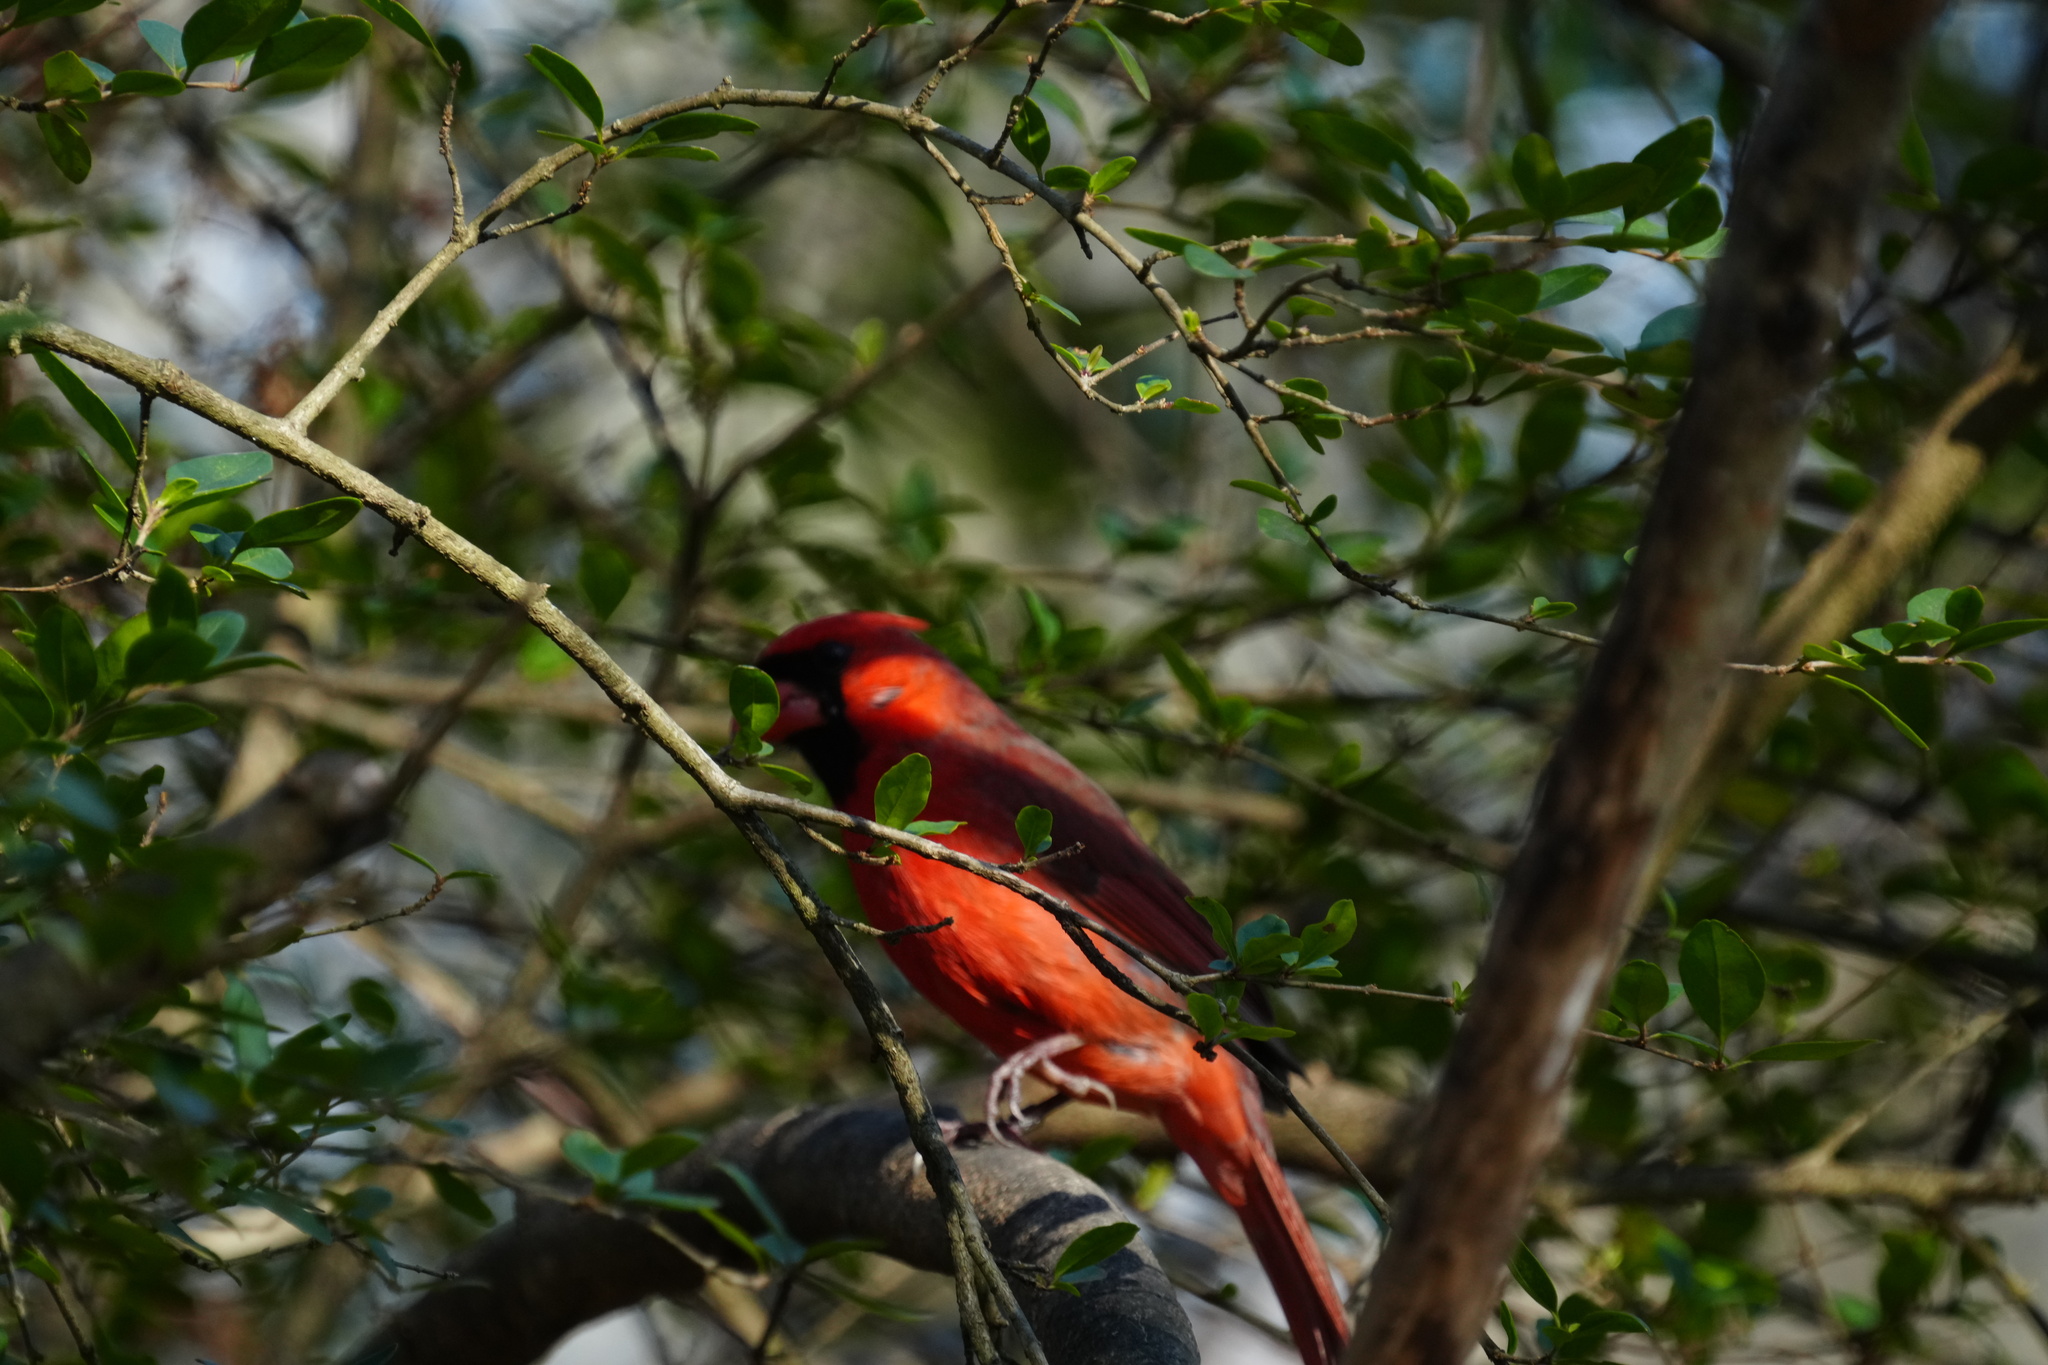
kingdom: Animalia
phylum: Chordata
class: Aves
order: Passeriformes
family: Cardinalidae
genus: Cardinalis
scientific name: Cardinalis cardinalis
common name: Northern cardinal
